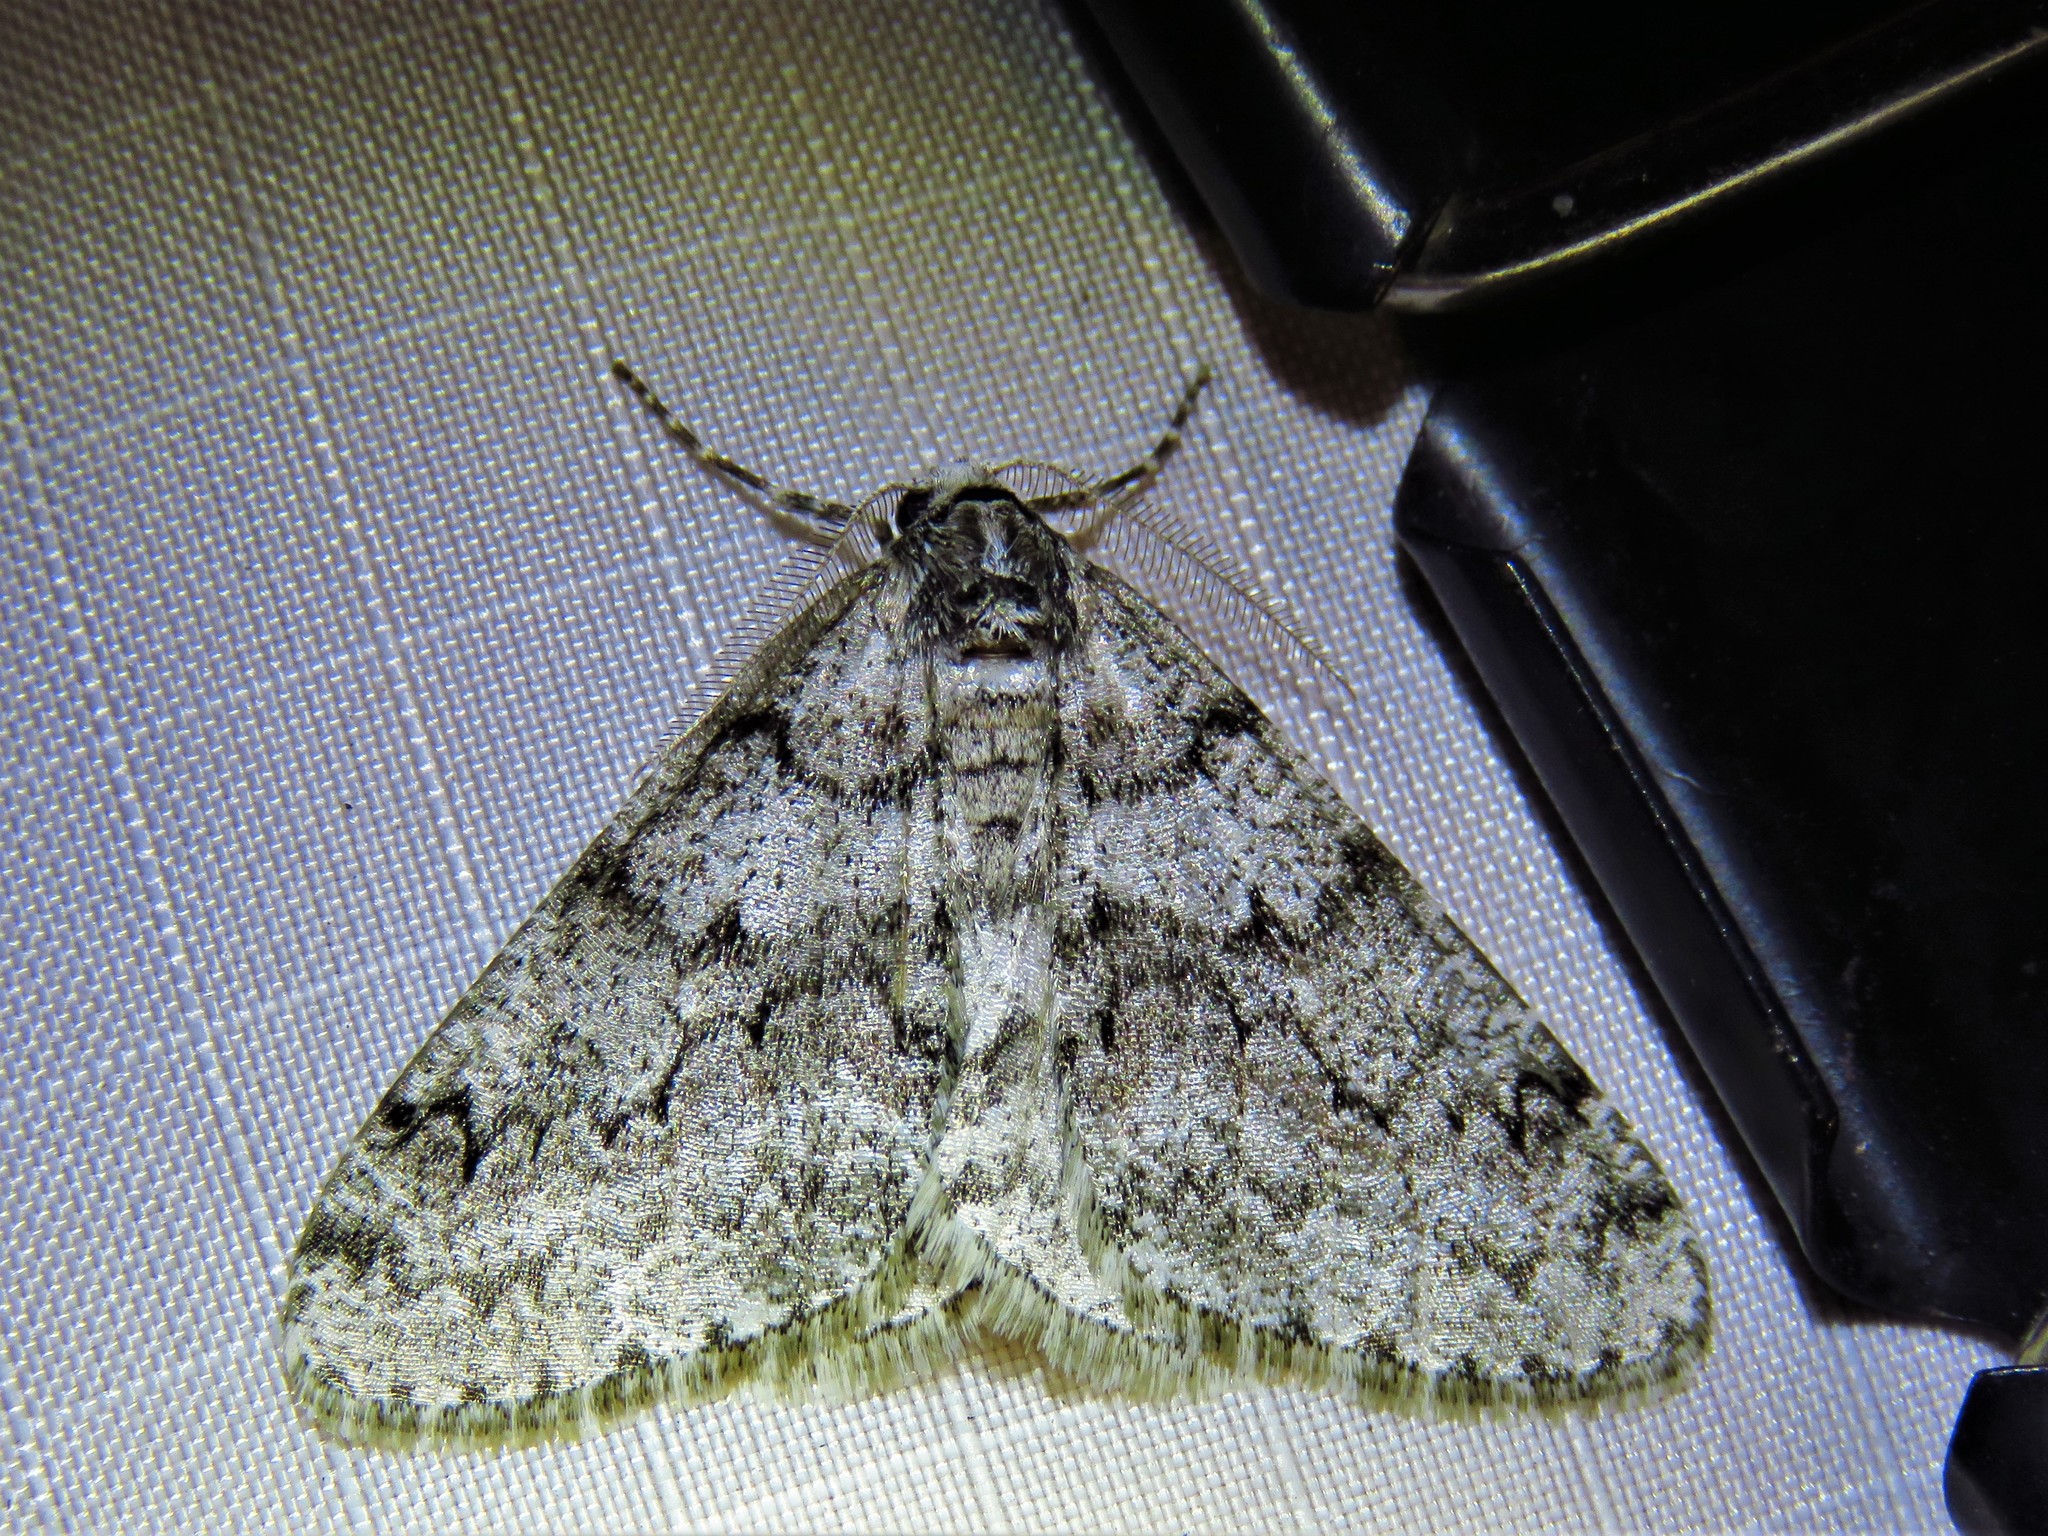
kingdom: Animalia
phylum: Arthropoda
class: Insecta
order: Lepidoptera
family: Geometridae
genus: Phigalia
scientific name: Phigalia denticulata
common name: Toothed phigalia
